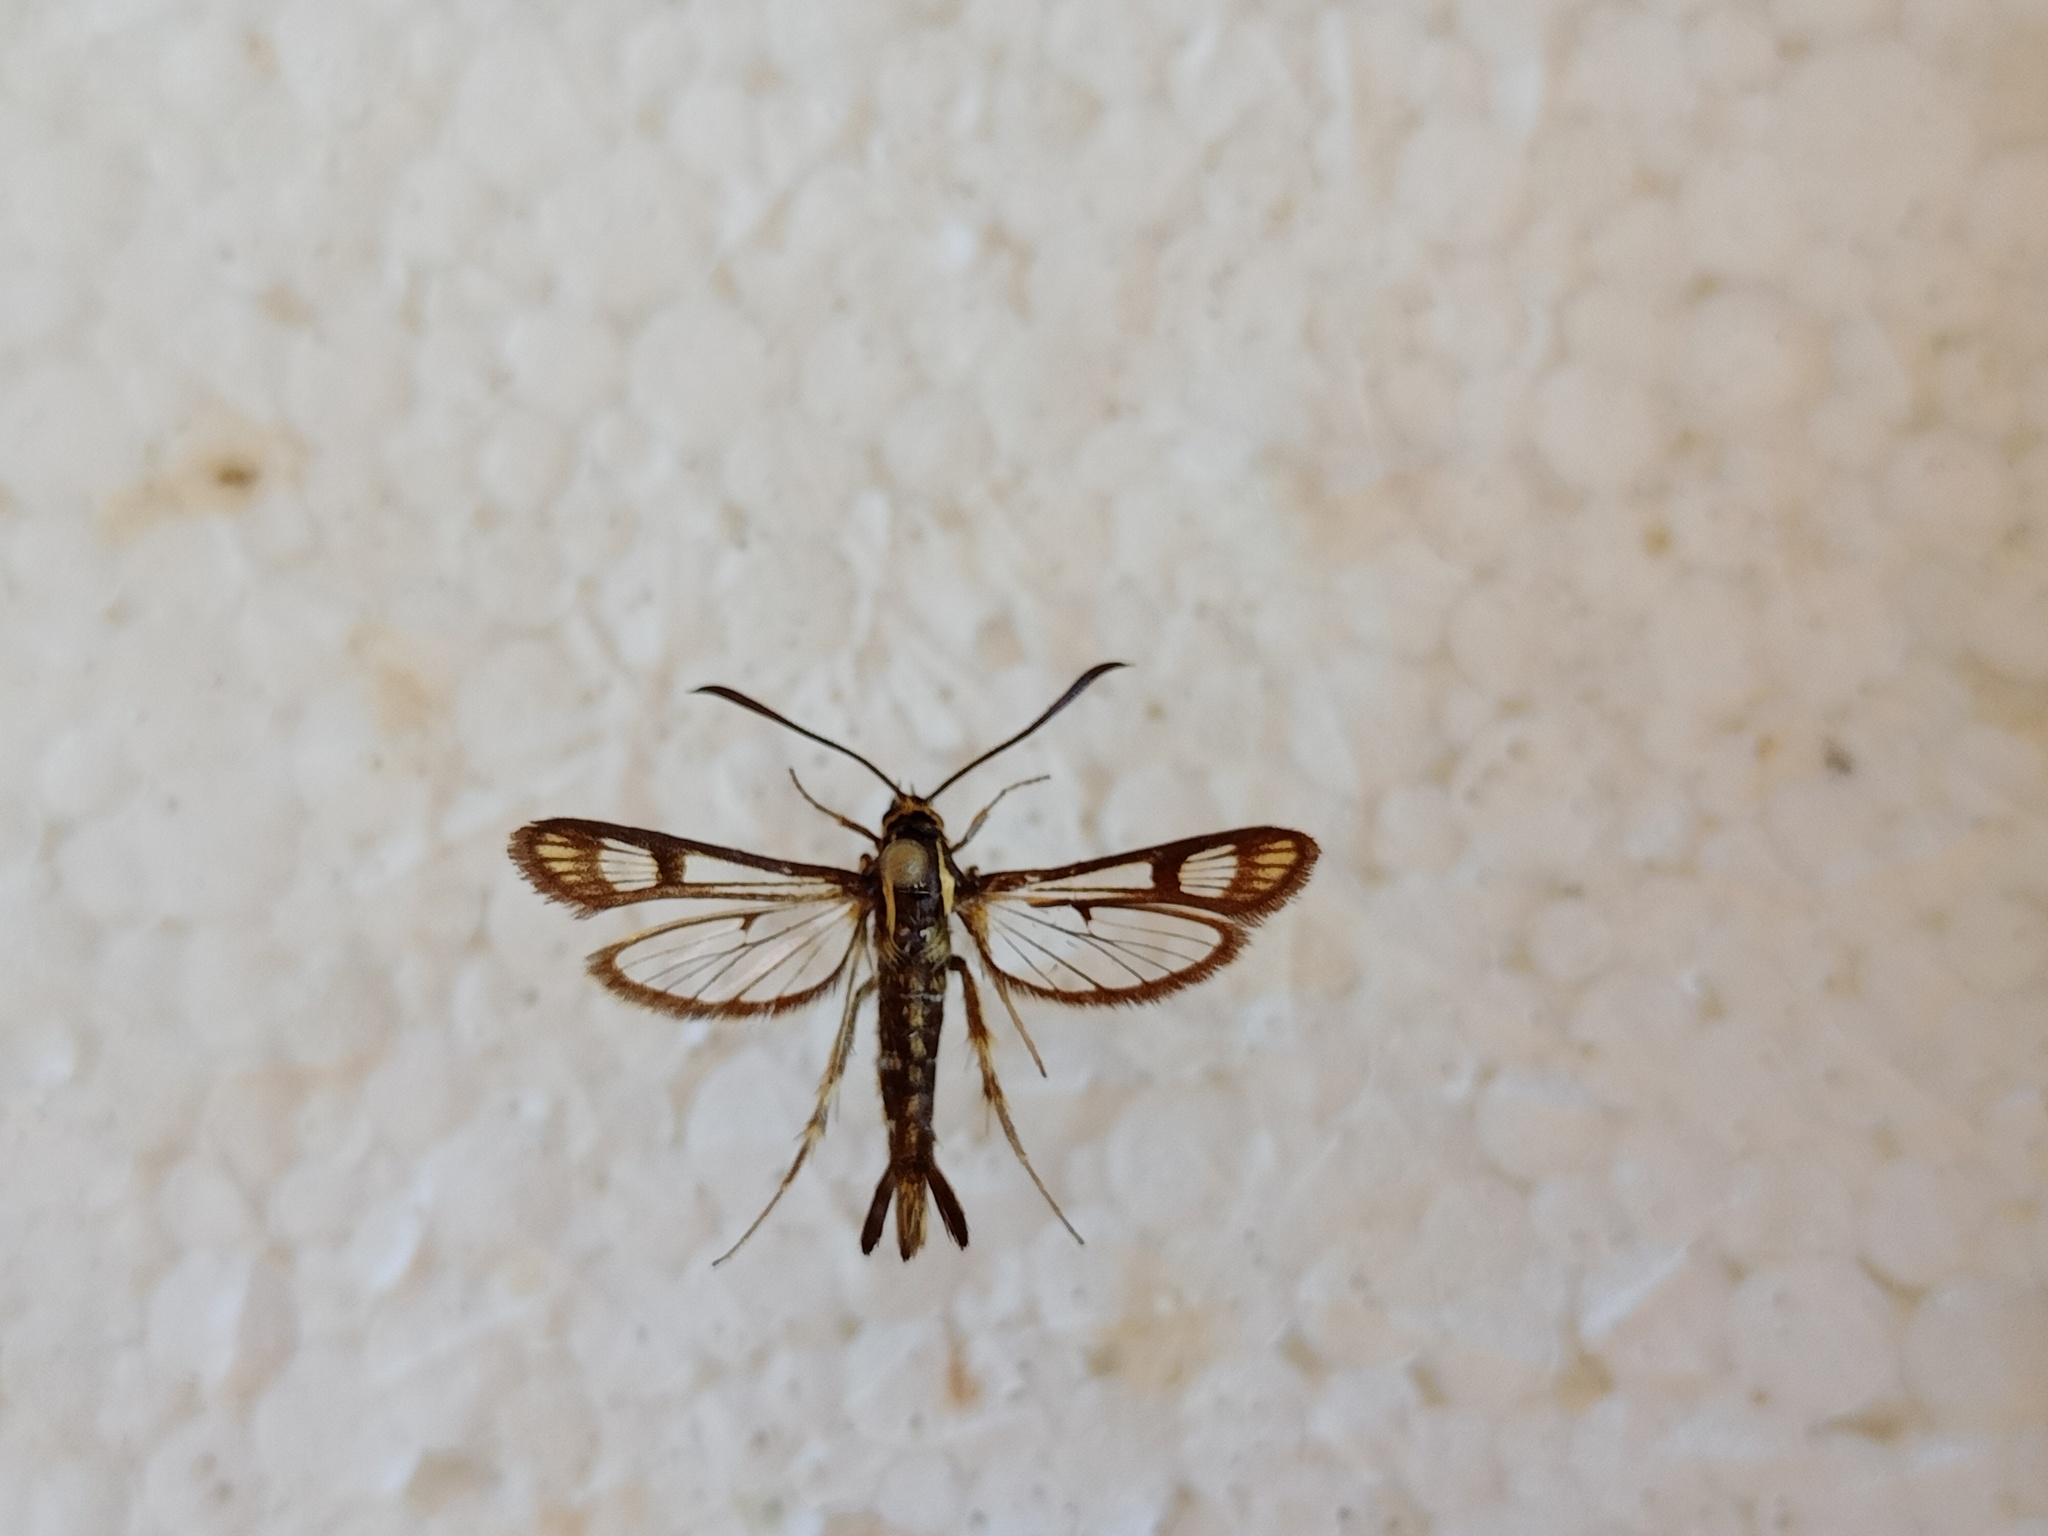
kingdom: Animalia
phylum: Arthropoda
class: Insecta
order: Lepidoptera
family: Sesiidae
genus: Pyropteron
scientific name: Pyropteron triannuliformis
